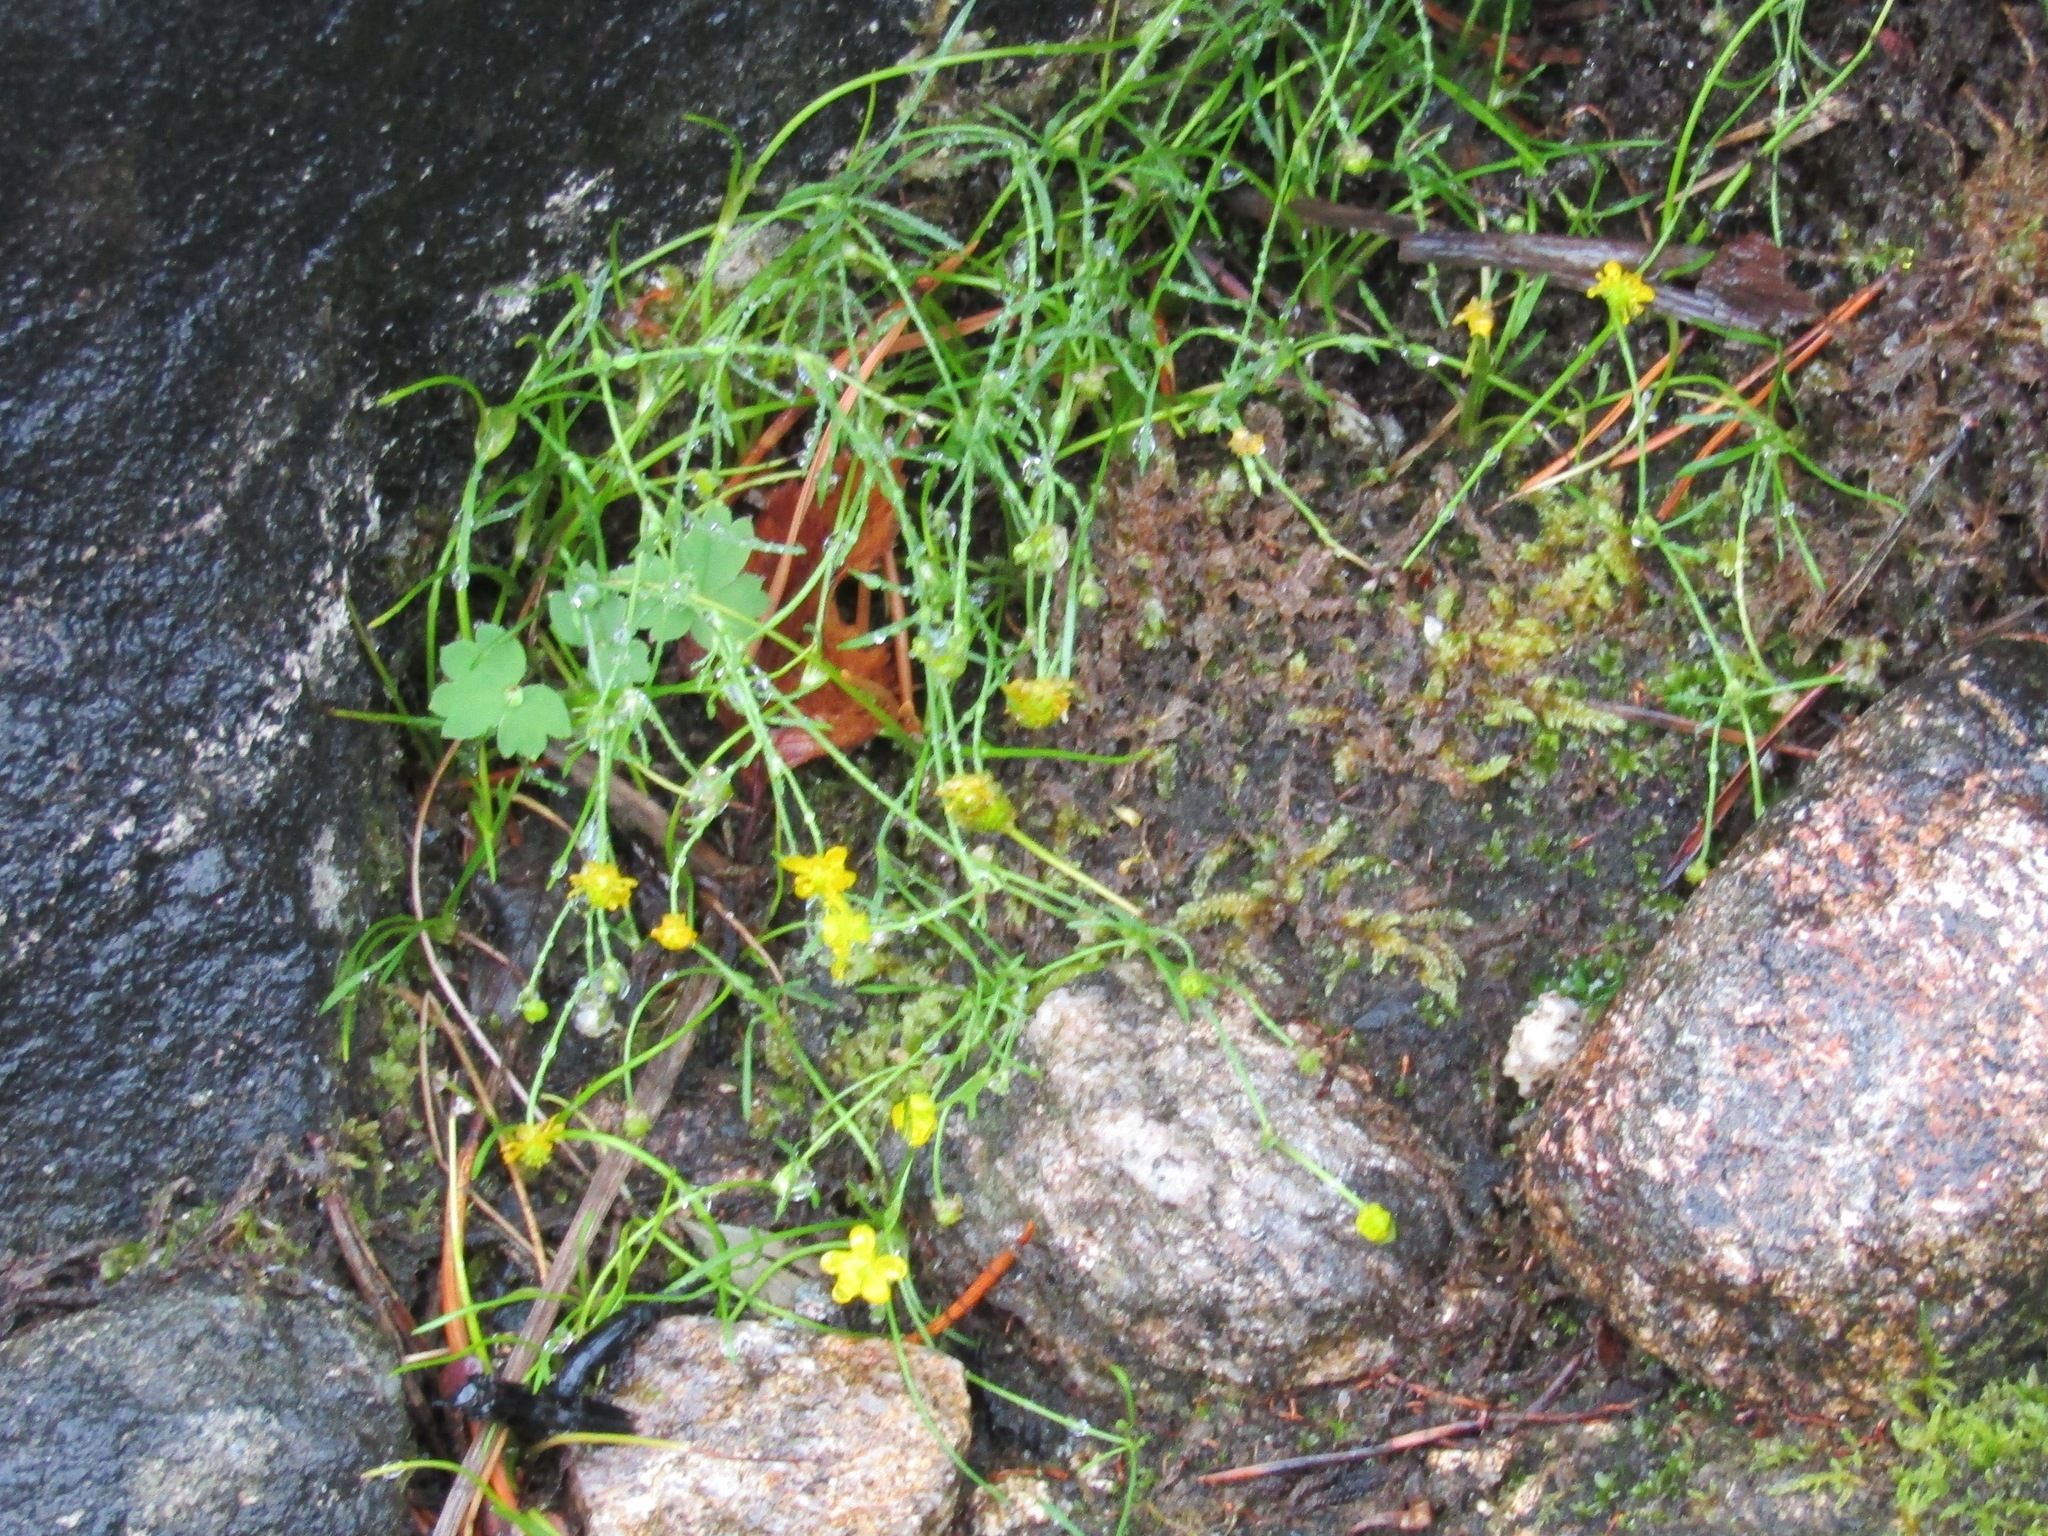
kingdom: Plantae
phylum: Tracheophyta
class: Magnoliopsida
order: Ranunculales
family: Ranunculaceae
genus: Ranunculus
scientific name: Ranunculus reptans
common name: Creeping spearwort
